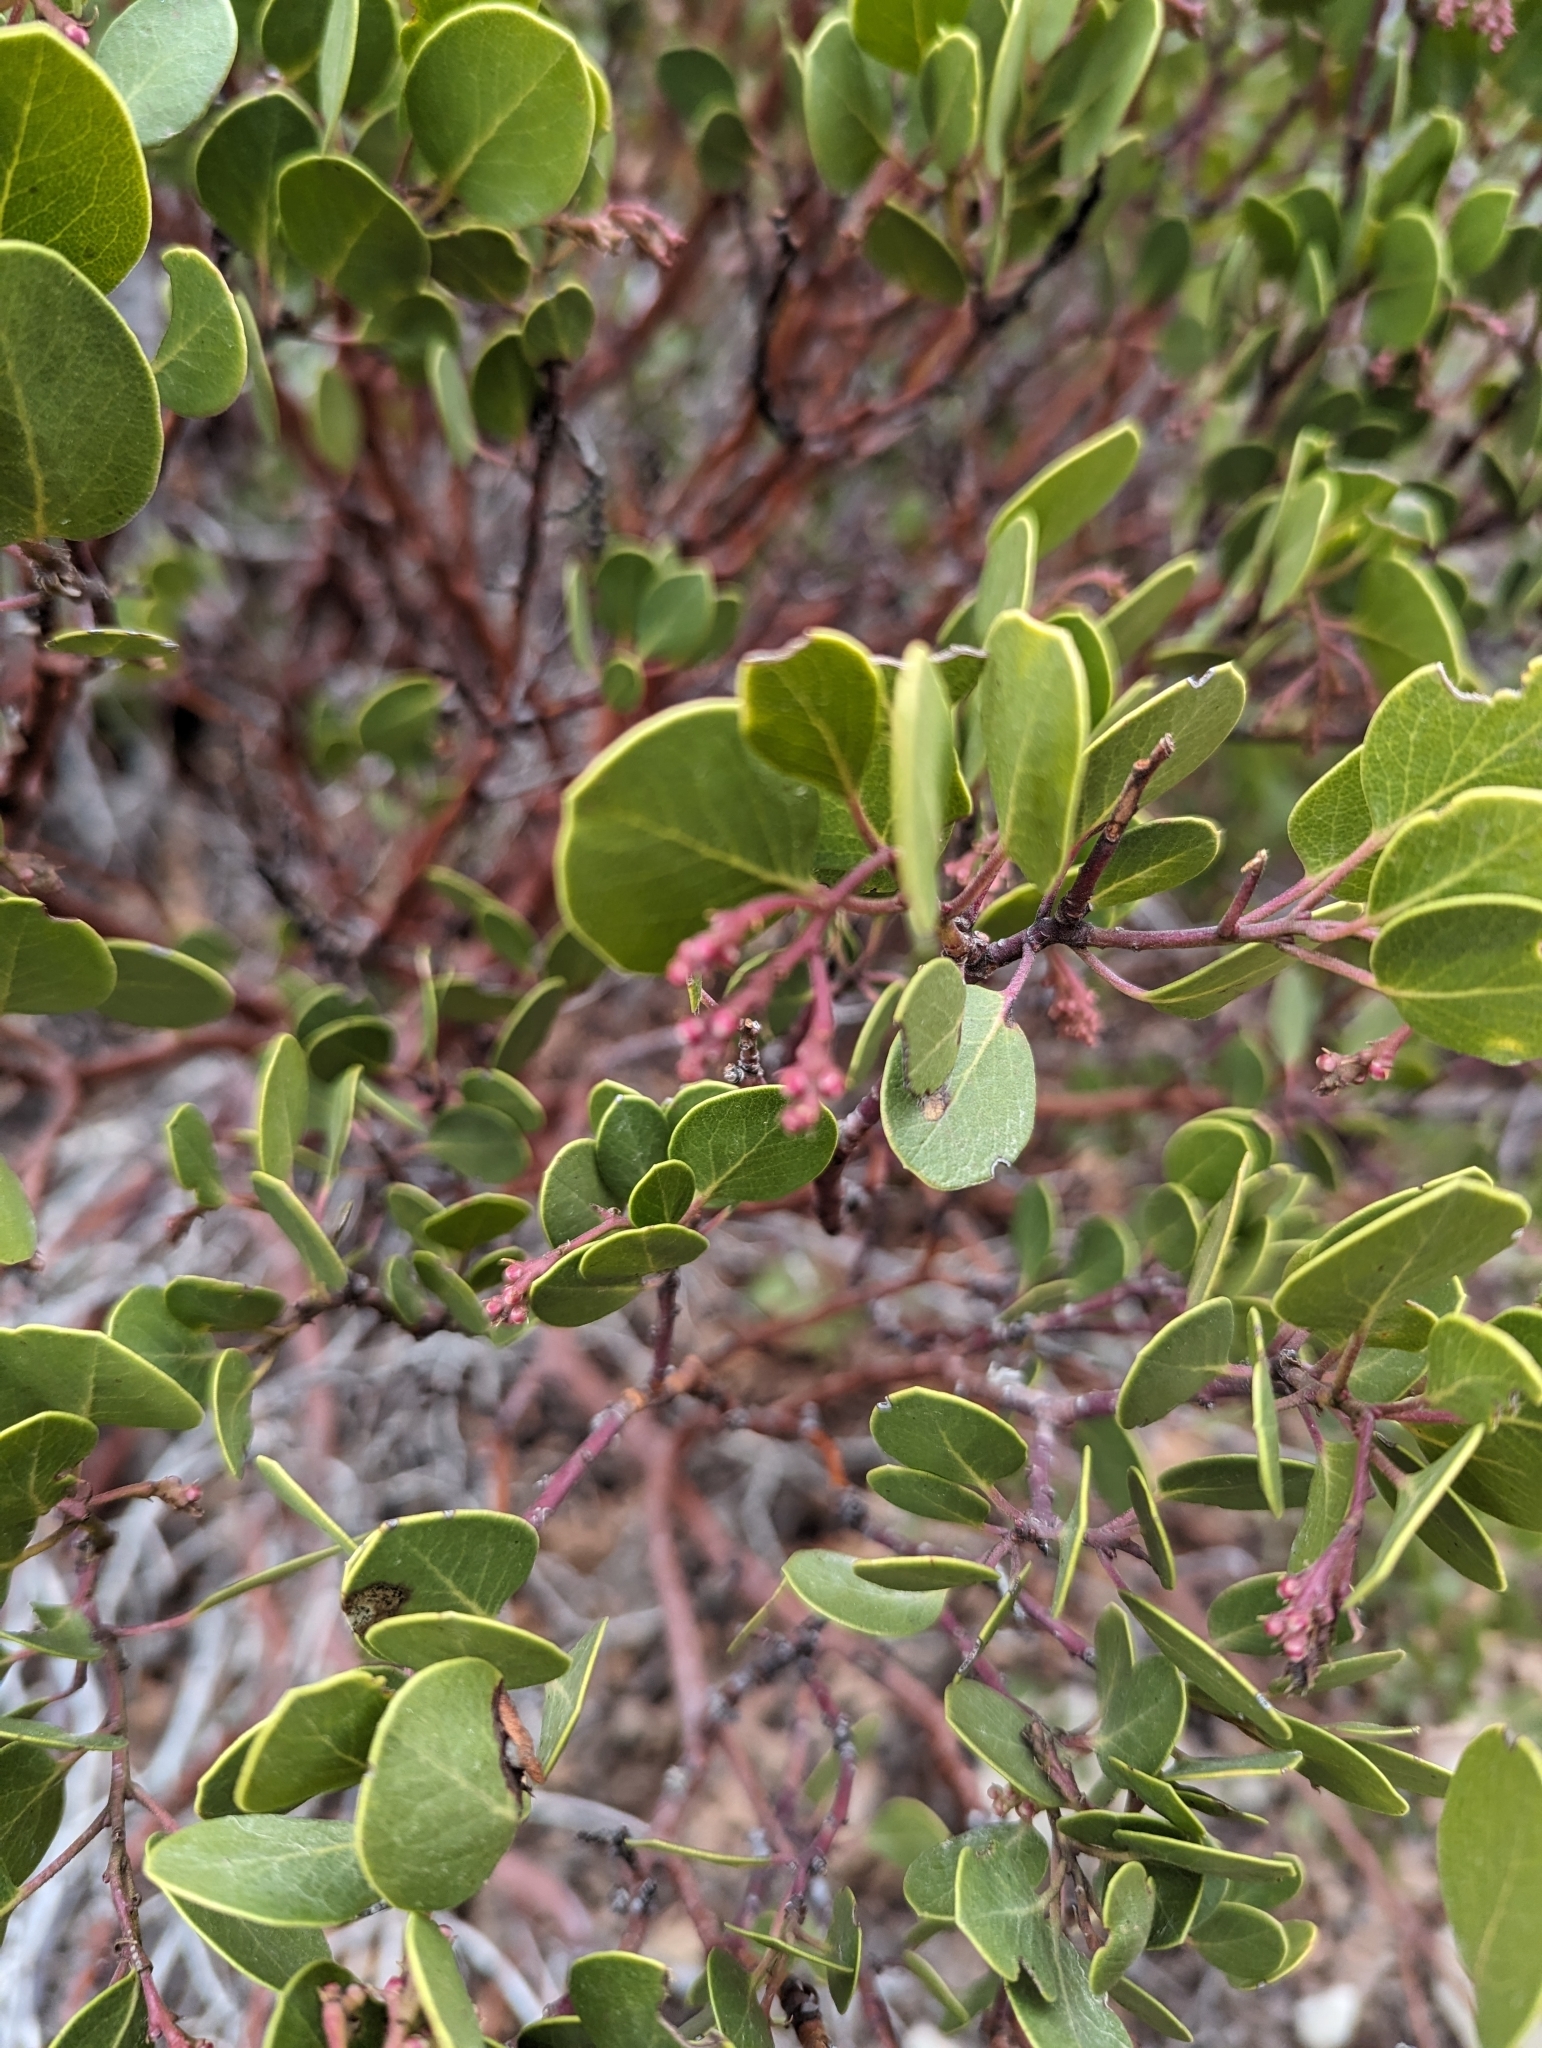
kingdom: Plantae
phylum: Tracheophyta
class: Magnoliopsida
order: Ericales
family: Ericaceae
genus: Arctostaphylos
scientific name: Arctostaphylos patula
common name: Green-leaf manzanita
